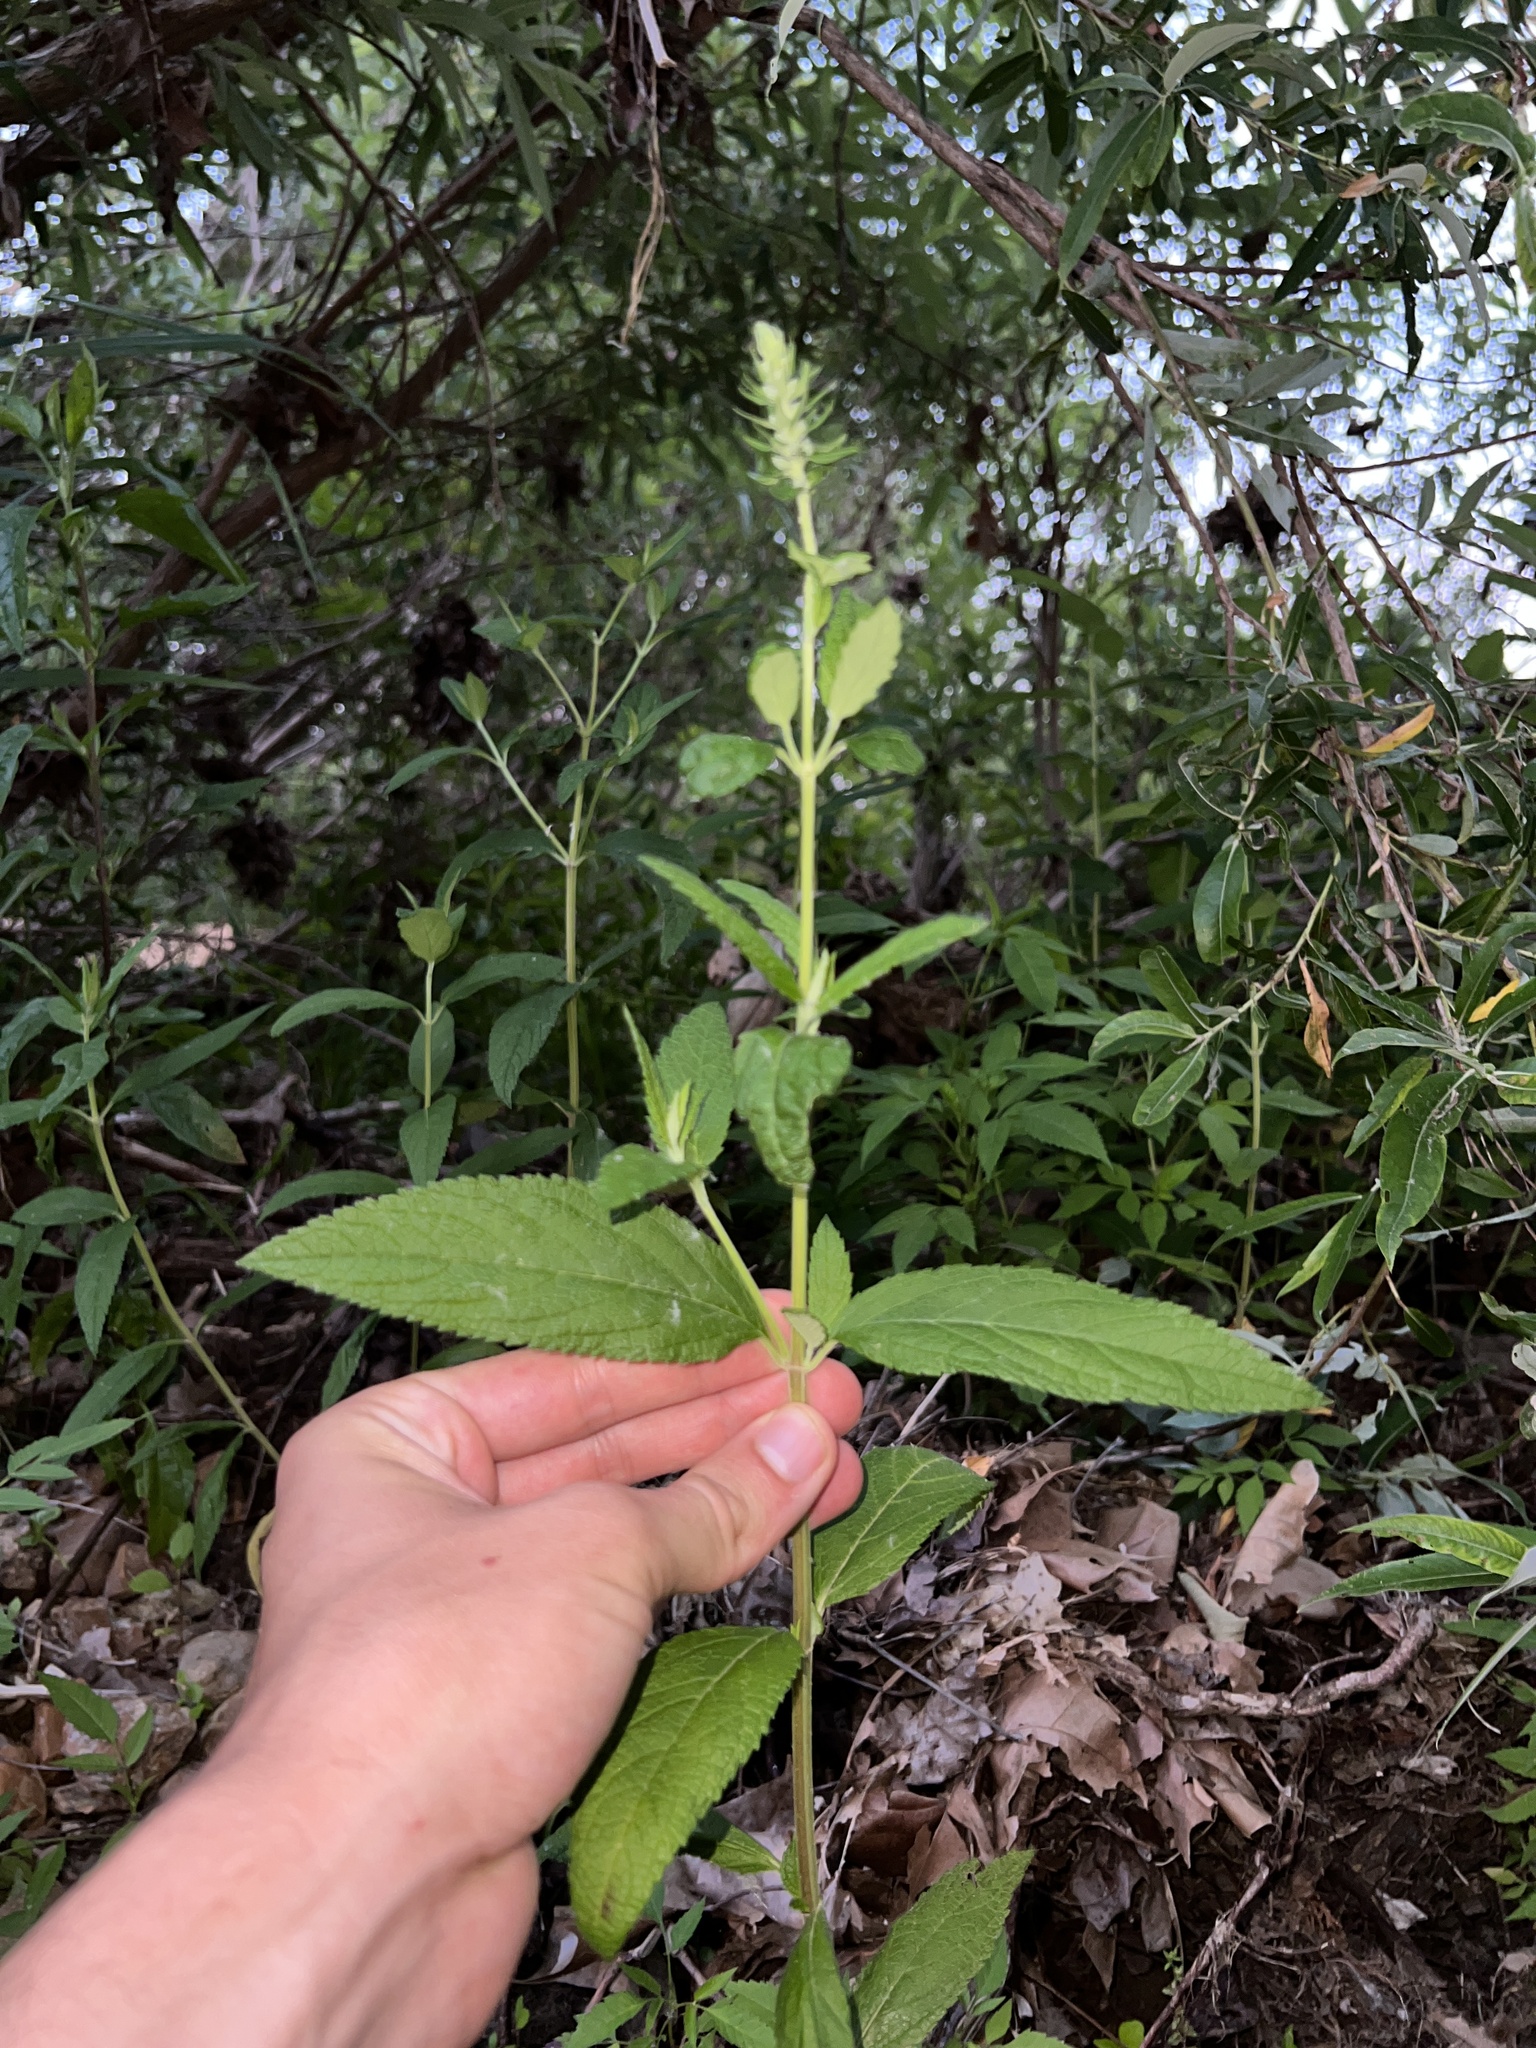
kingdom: Plantae
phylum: Tracheophyta
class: Magnoliopsida
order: Lamiales
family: Lamiaceae
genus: Teucrium
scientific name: Teucrium canadense
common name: American germander
